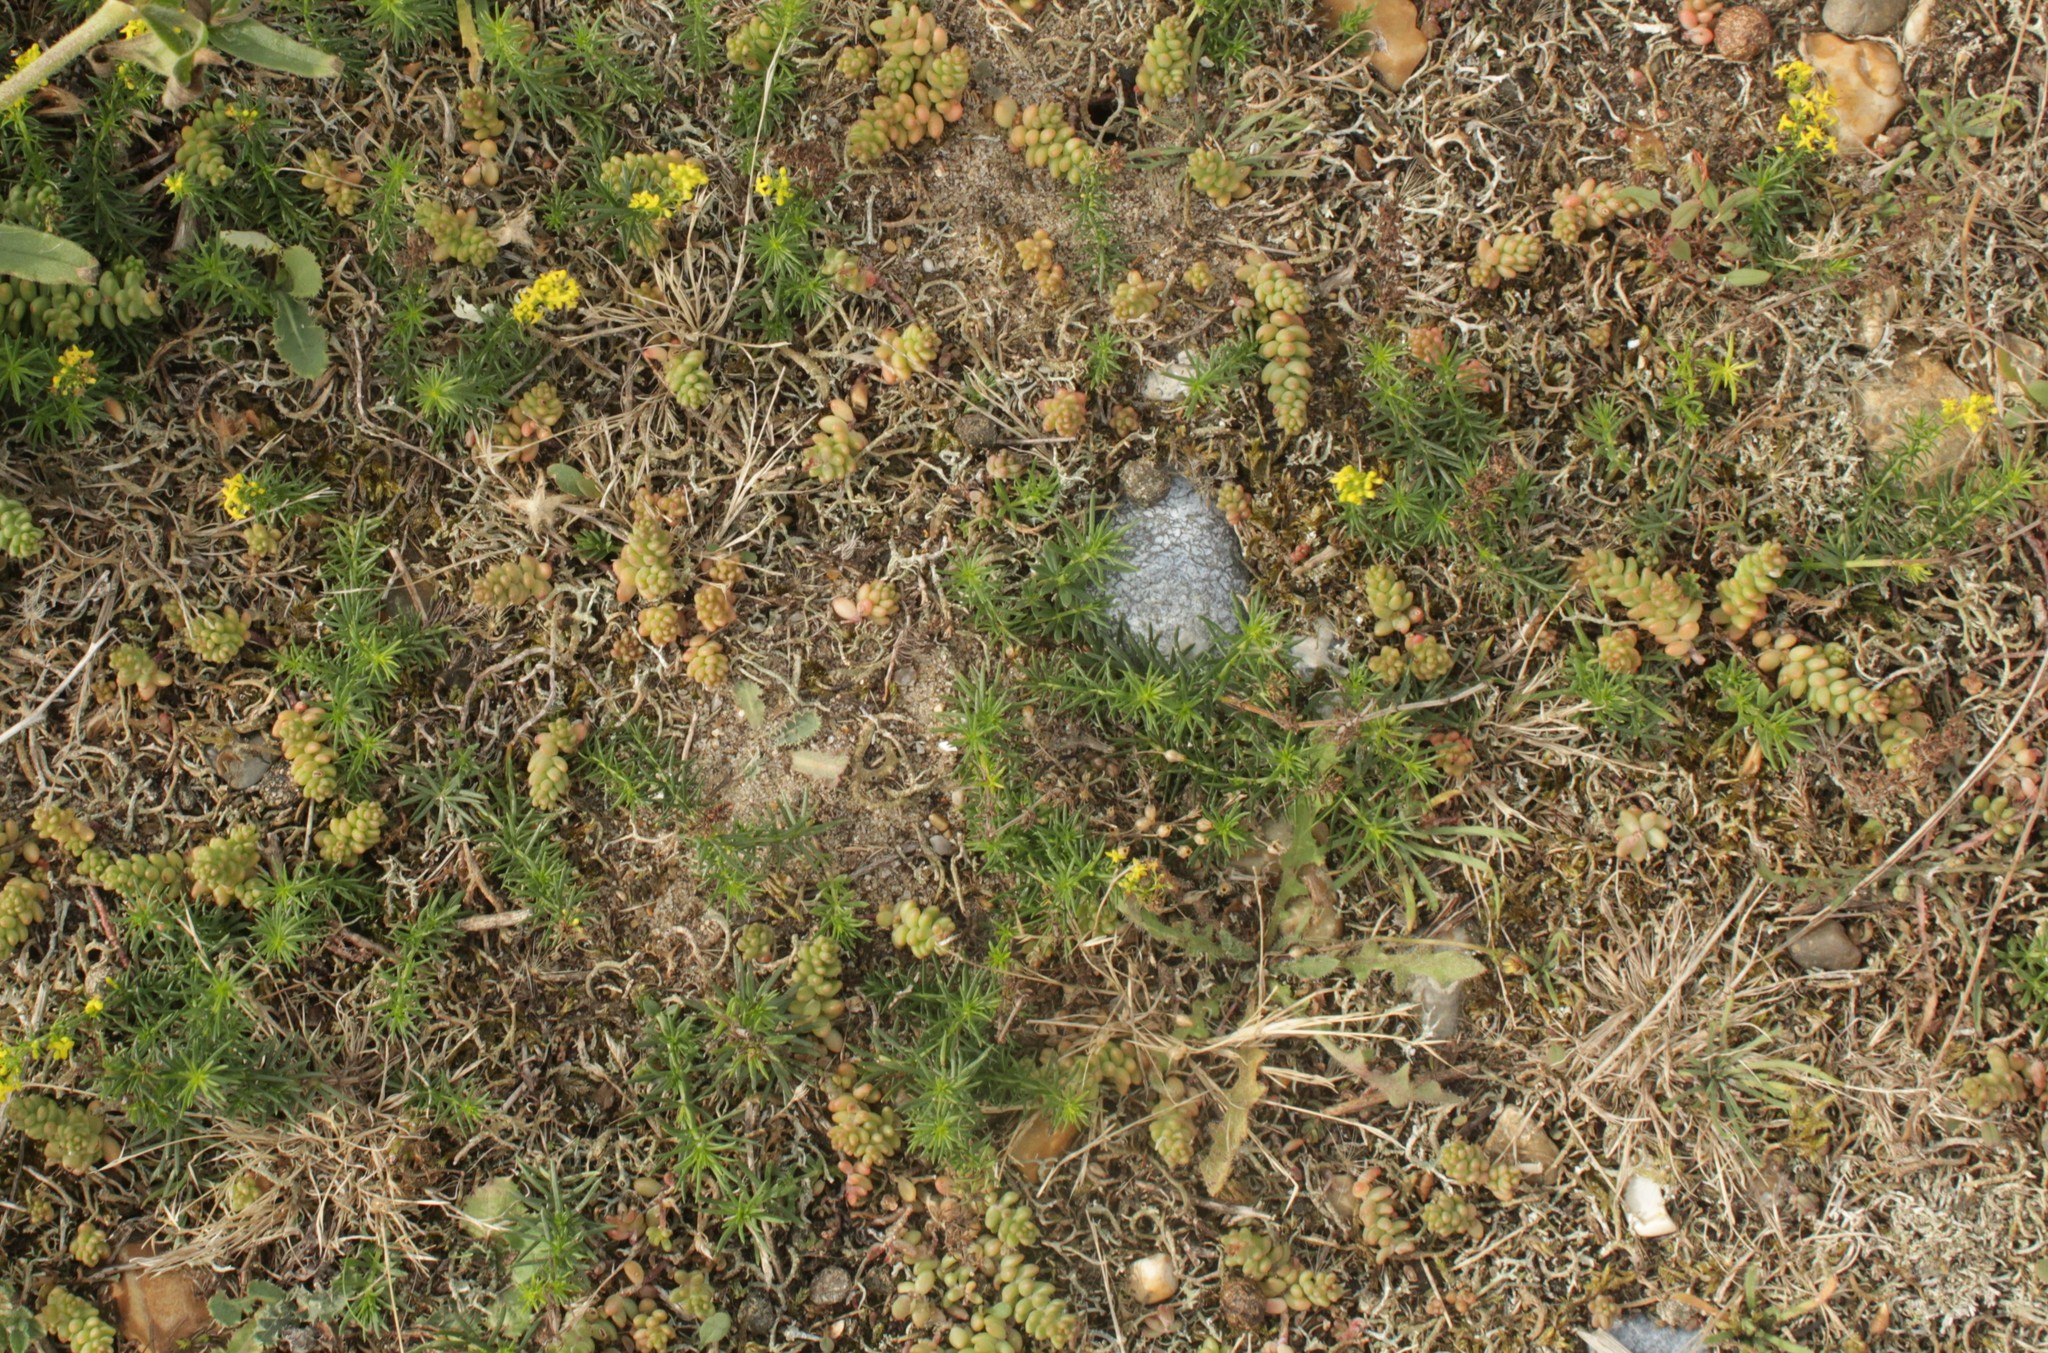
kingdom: Plantae
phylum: Tracheophyta
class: Magnoliopsida
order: Gentianales
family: Rubiaceae
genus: Galium
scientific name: Galium verum
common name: Lady's bedstraw
